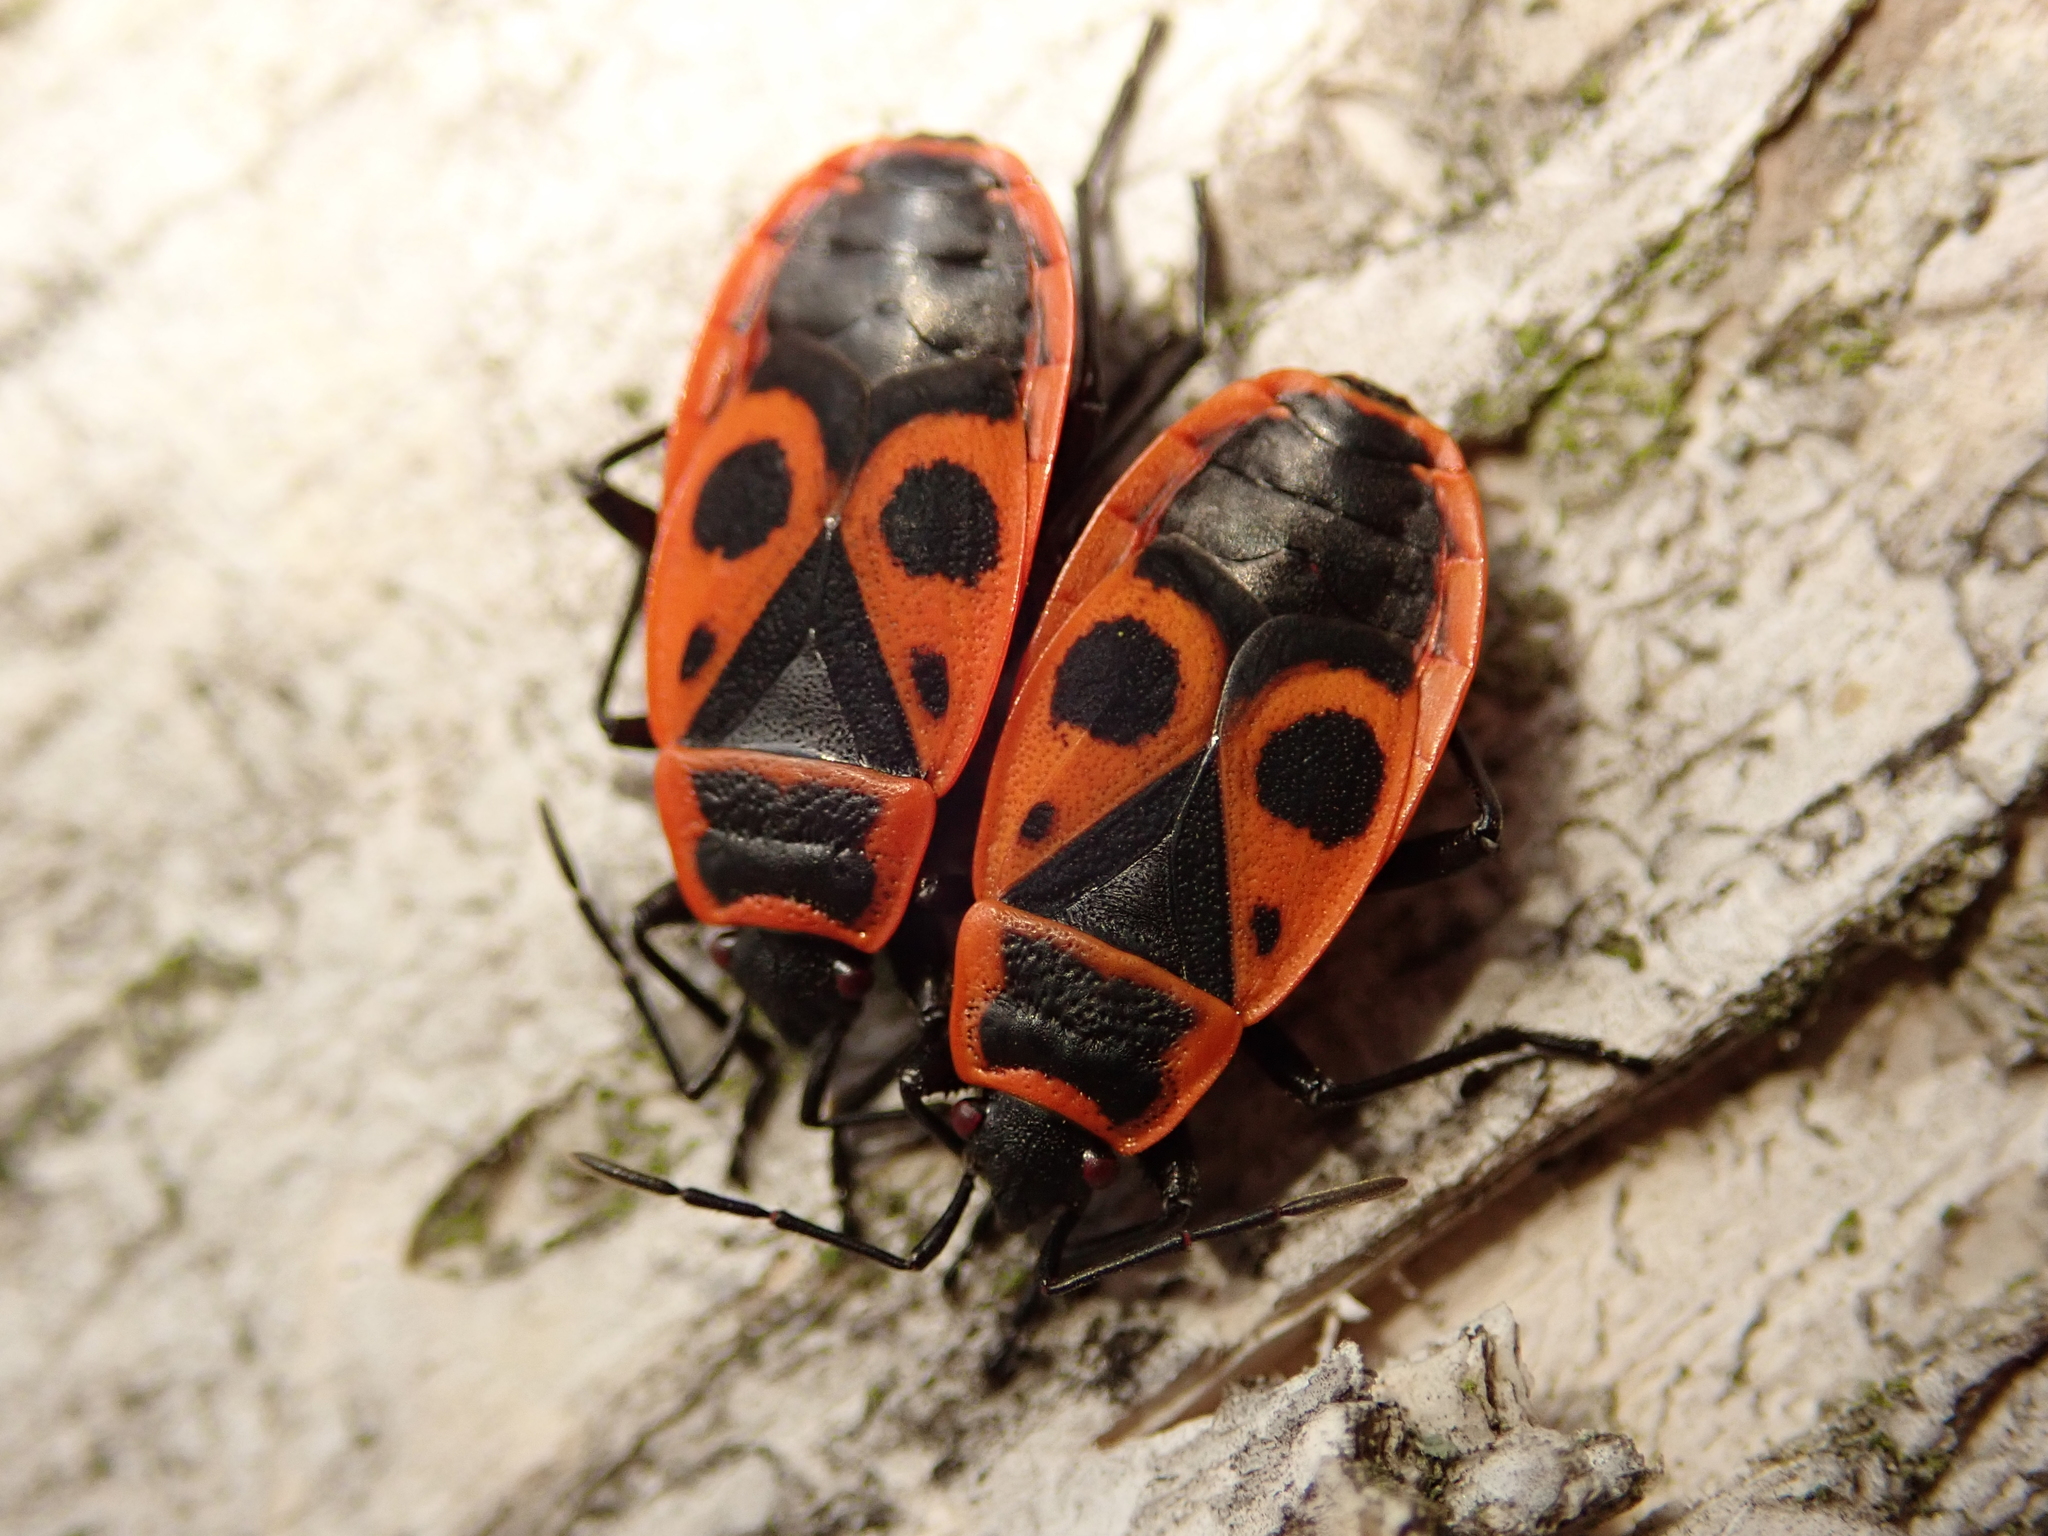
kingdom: Animalia
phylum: Arthropoda
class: Insecta
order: Hemiptera
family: Pyrrhocoridae
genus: Pyrrhocoris
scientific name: Pyrrhocoris apterus
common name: Firebug
